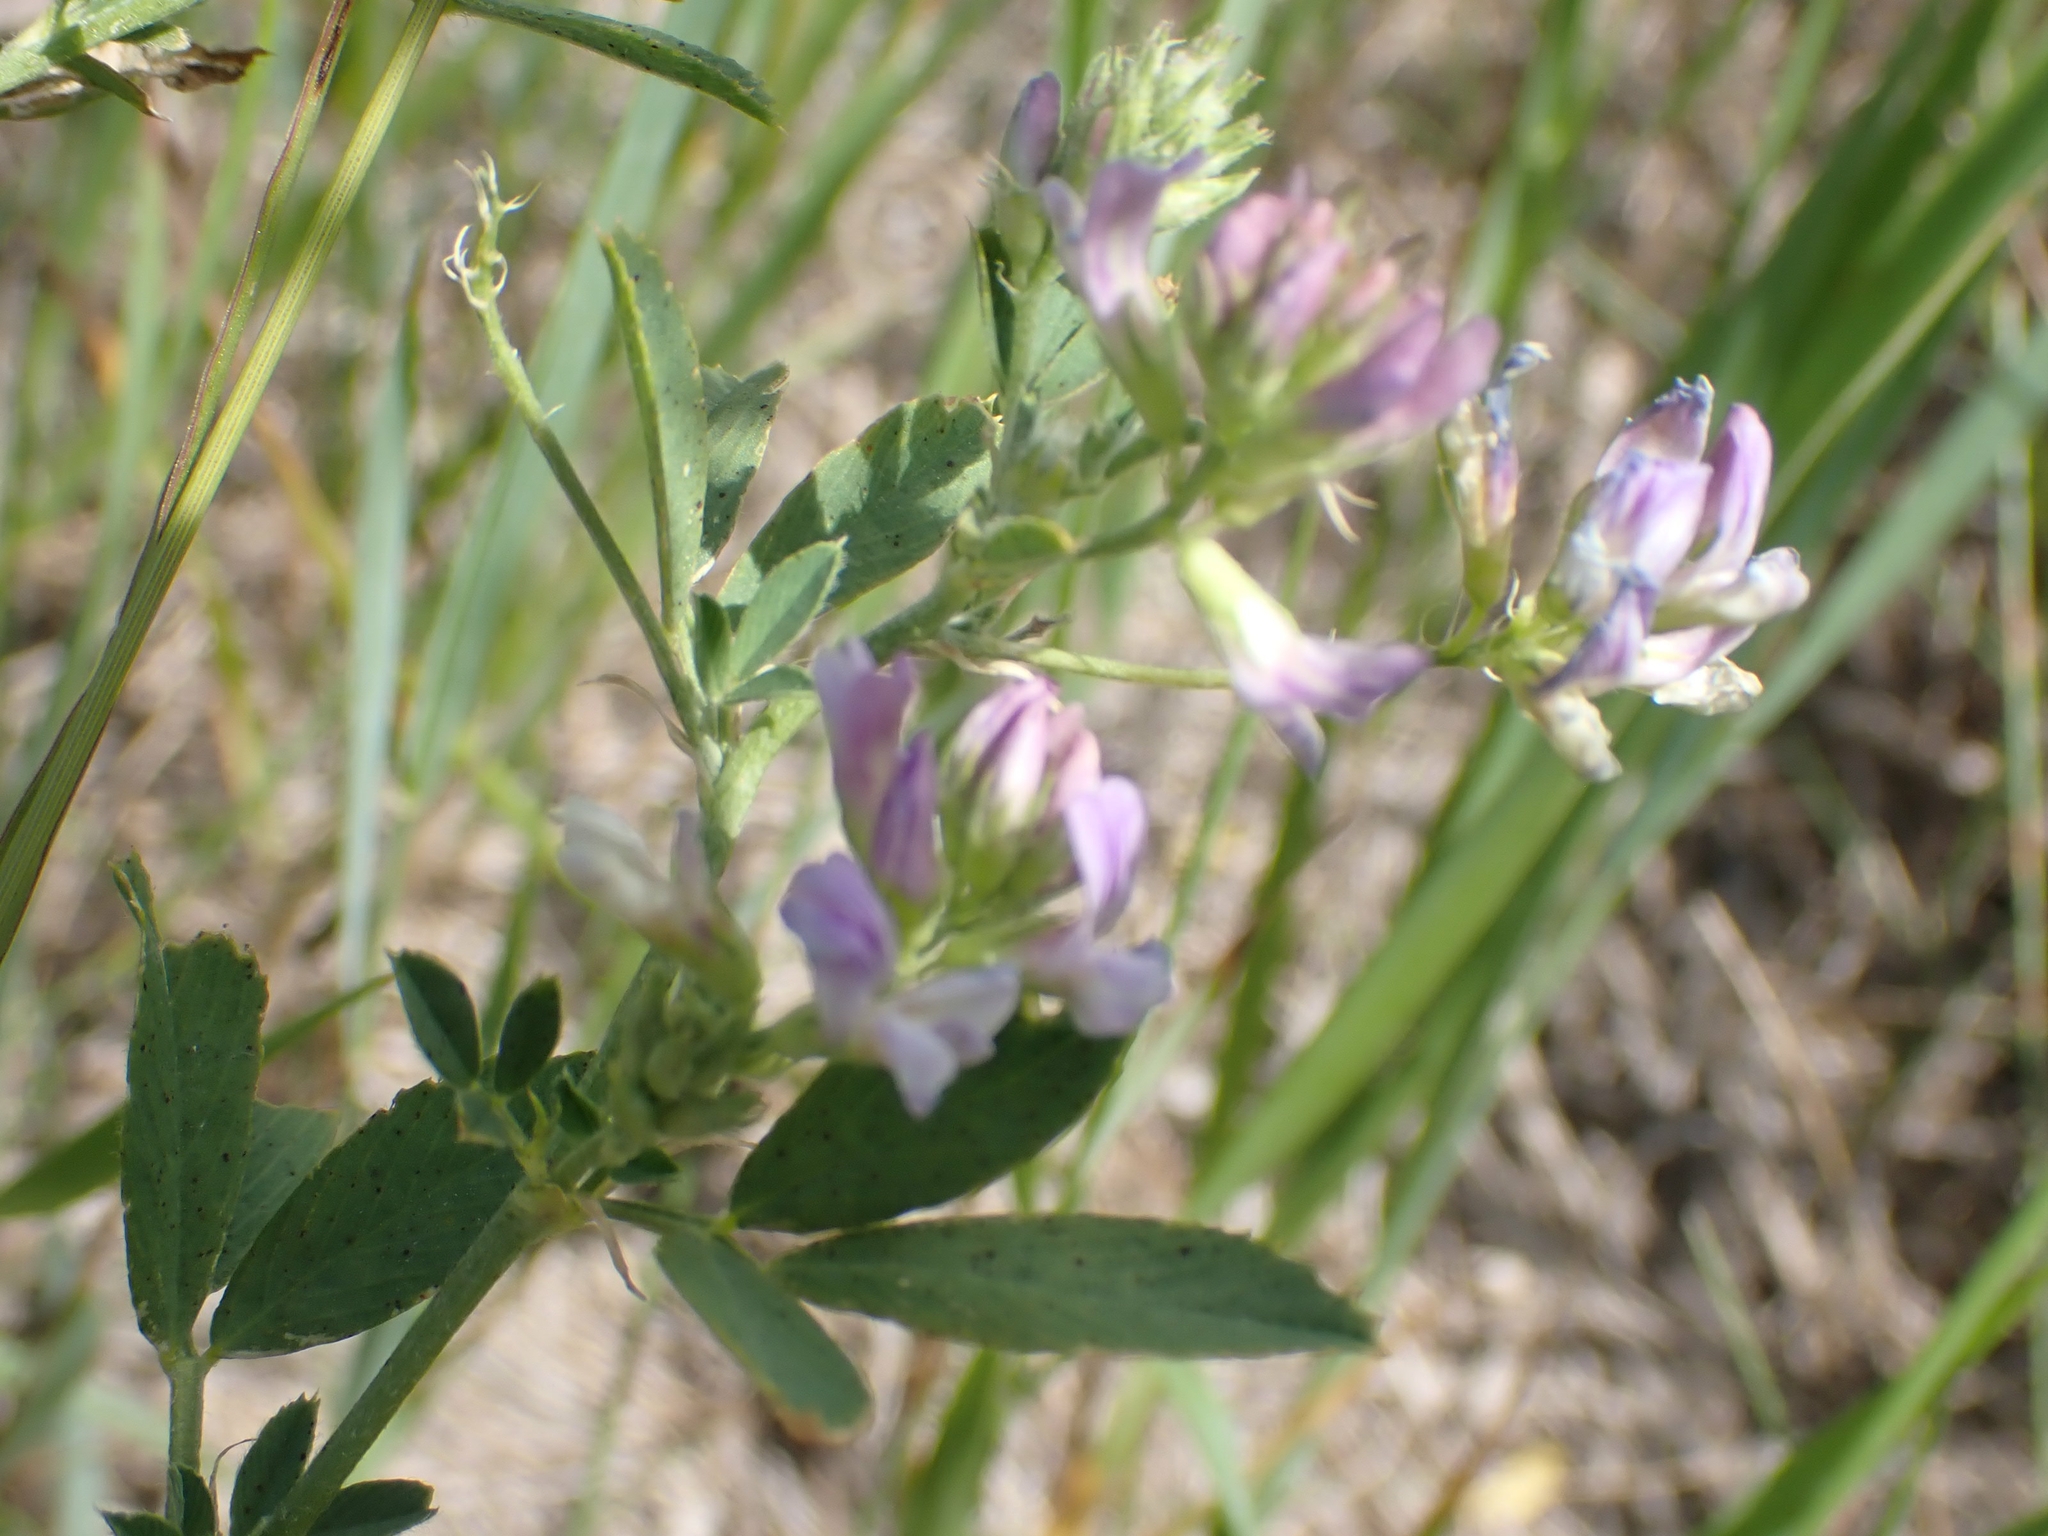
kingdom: Plantae
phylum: Tracheophyta
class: Magnoliopsida
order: Fabales
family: Fabaceae
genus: Medicago
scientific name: Medicago sativa
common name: Alfalfa
